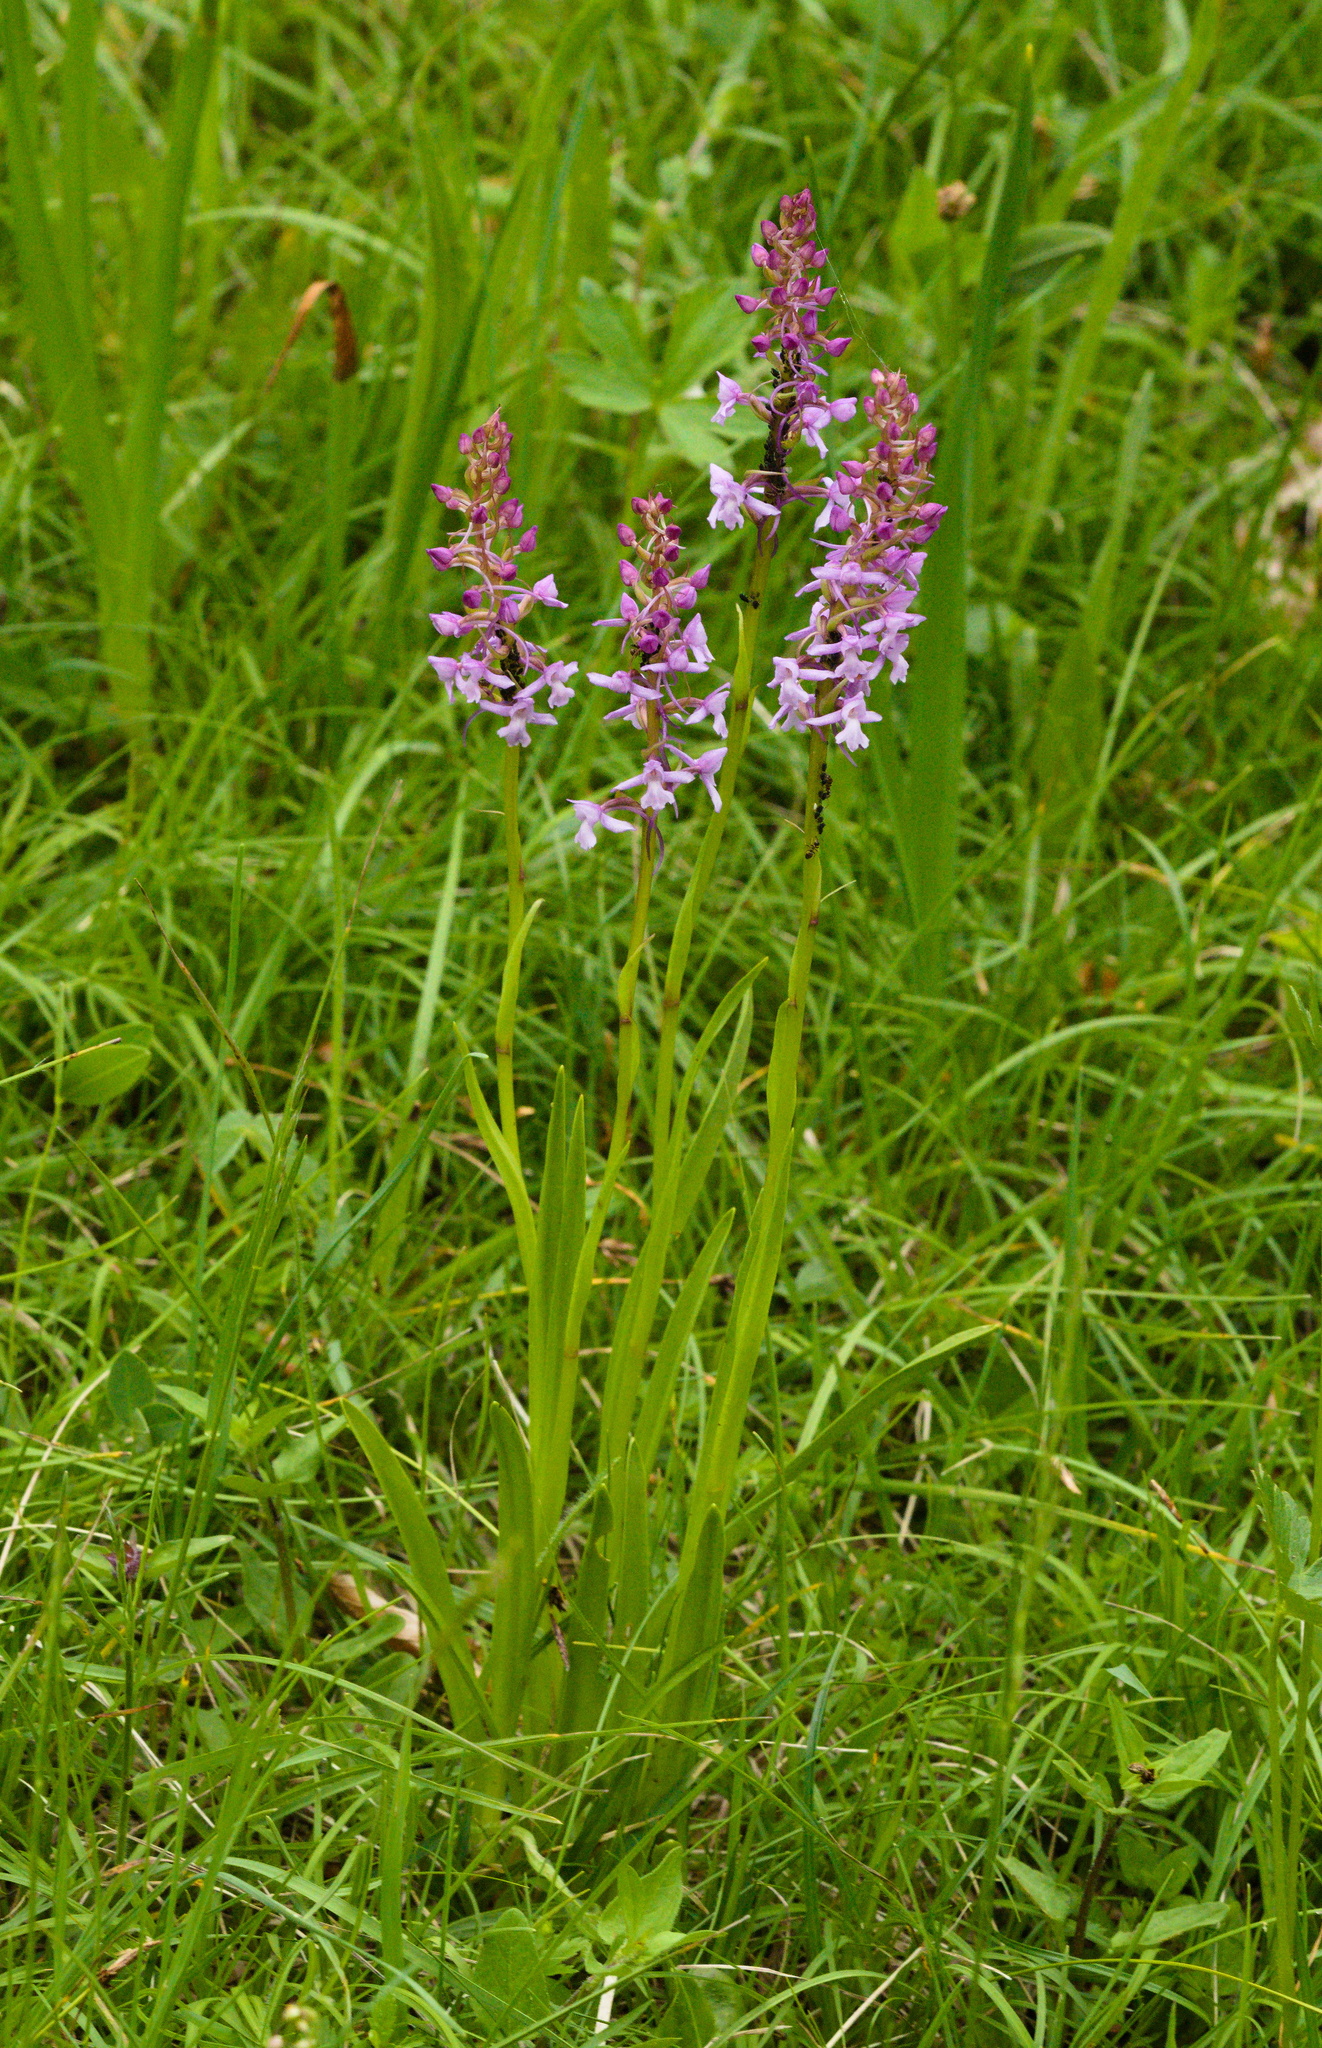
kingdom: Plantae
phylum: Tracheophyta
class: Liliopsida
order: Asparagales
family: Orchidaceae
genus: Gymnadenia
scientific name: Gymnadenia conopsea
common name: Fragrant orchid
